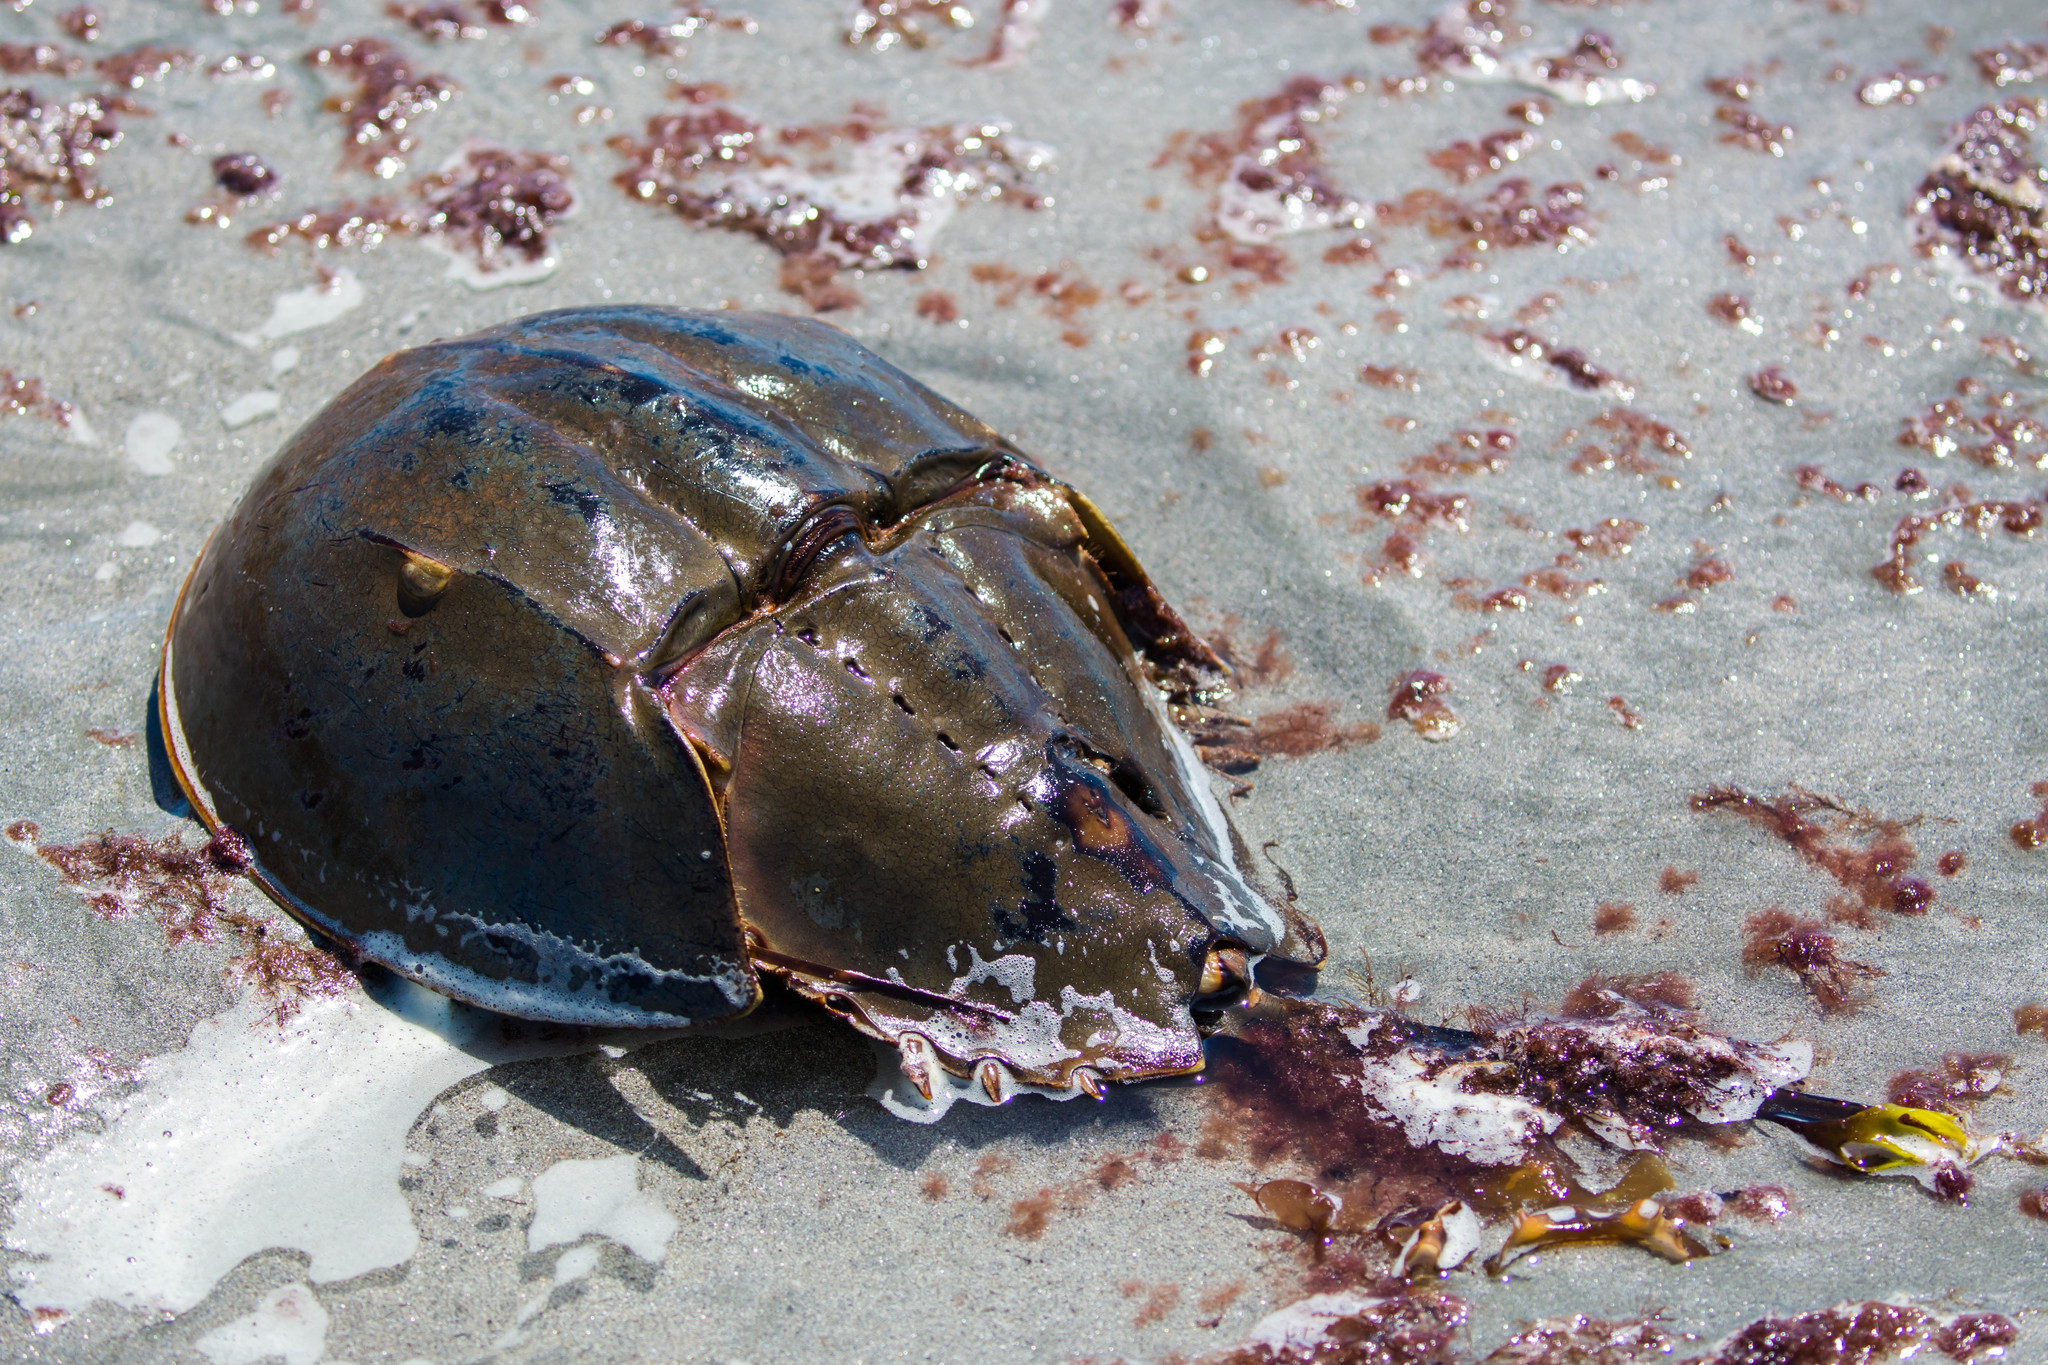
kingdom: Animalia
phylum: Arthropoda
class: Merostomata
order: Xiphosurida
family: Limulidae
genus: Limulus
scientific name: Limulus polyphemus
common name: Horseshoe crab
